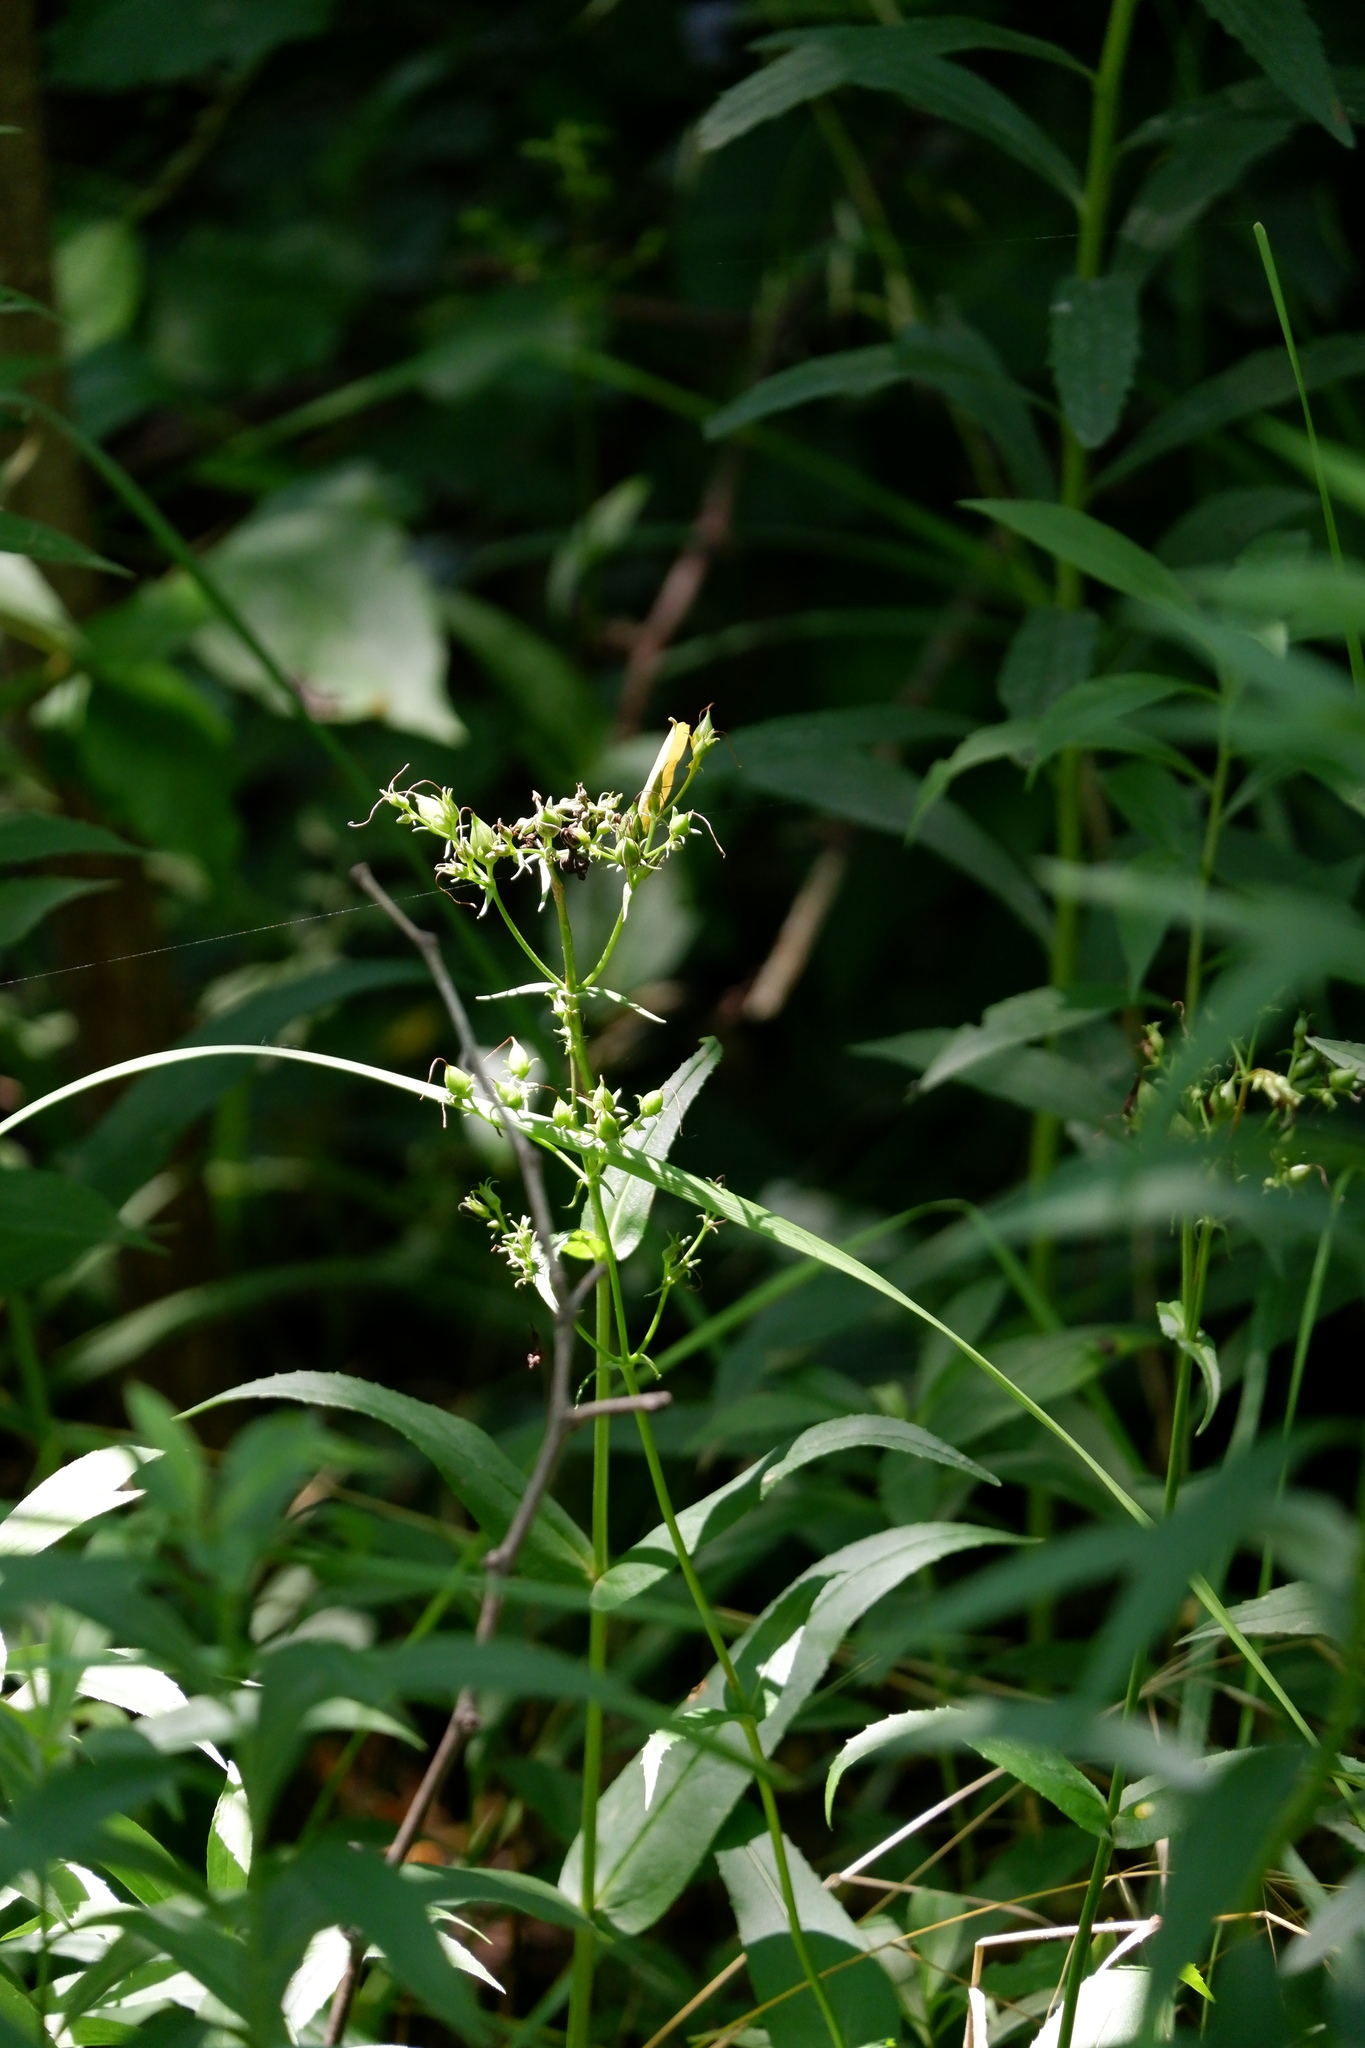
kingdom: Plantae
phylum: Tracheophyta
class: Magnoliopsida
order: Lamiales
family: Plantaginaceae
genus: Penstemon
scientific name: Penstemon digitalis
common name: Foxglove beardtongue
